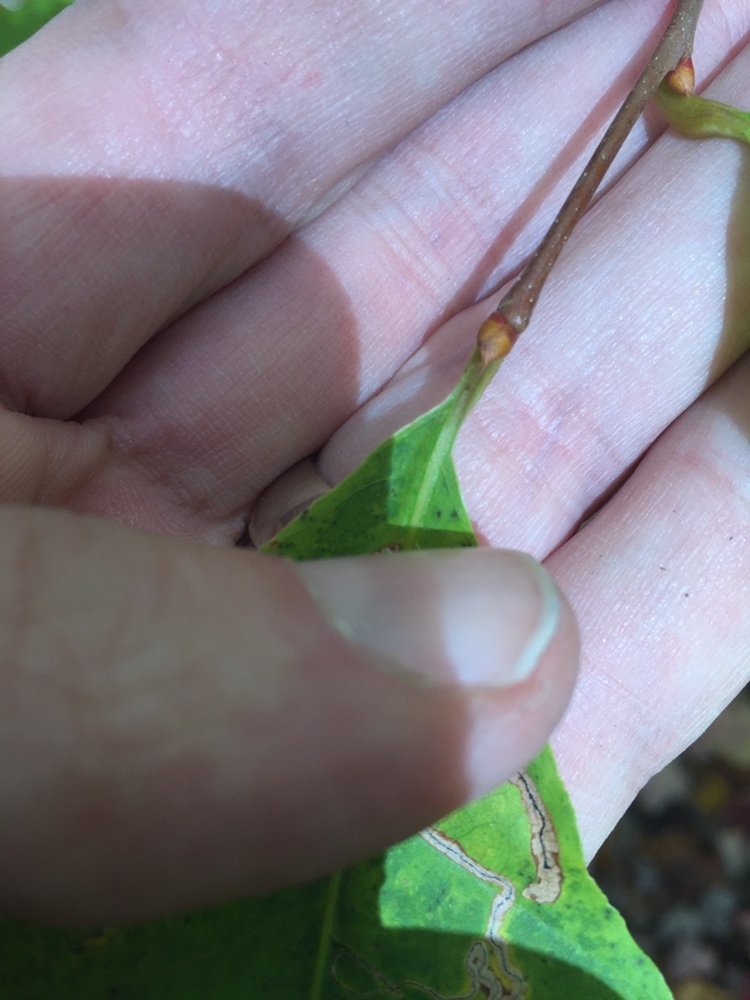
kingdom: Plantae
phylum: Tracheophyta
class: Magnoliopsida
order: Fagales
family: Fagaceae
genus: Castanea
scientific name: Castanea dentata
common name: American chestnut
